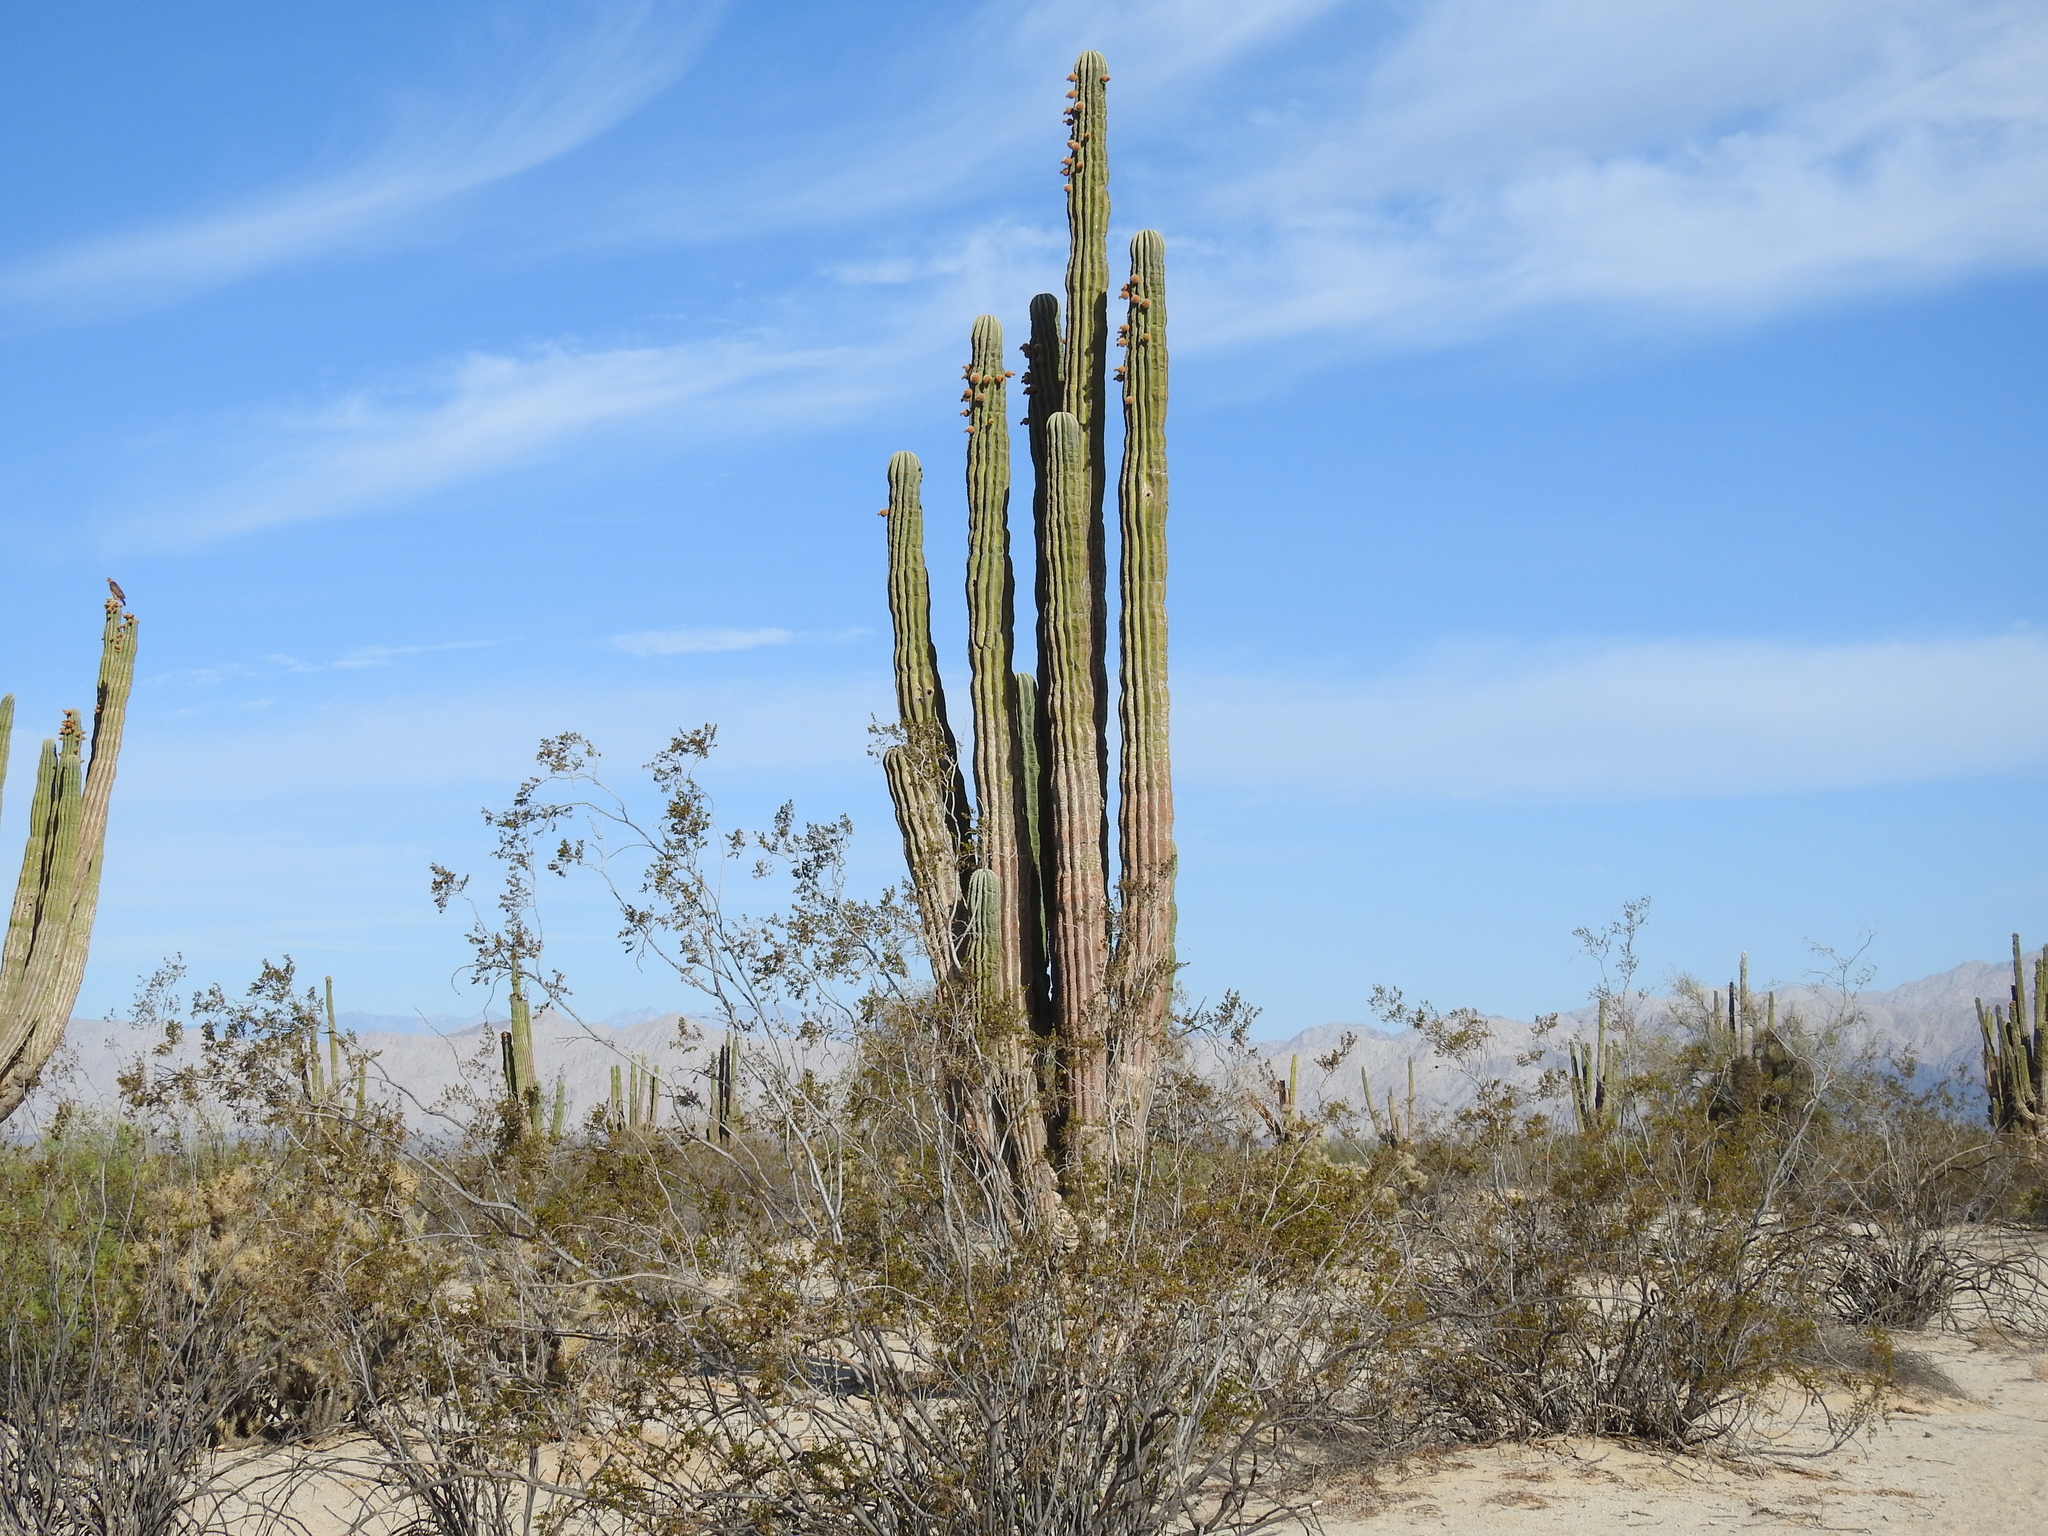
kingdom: Plantae
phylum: Tracheophyta
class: Magnoliopsida
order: Caryophyllales
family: Cactaceae
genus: Pachycereus
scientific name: Pachycereus pringlei
